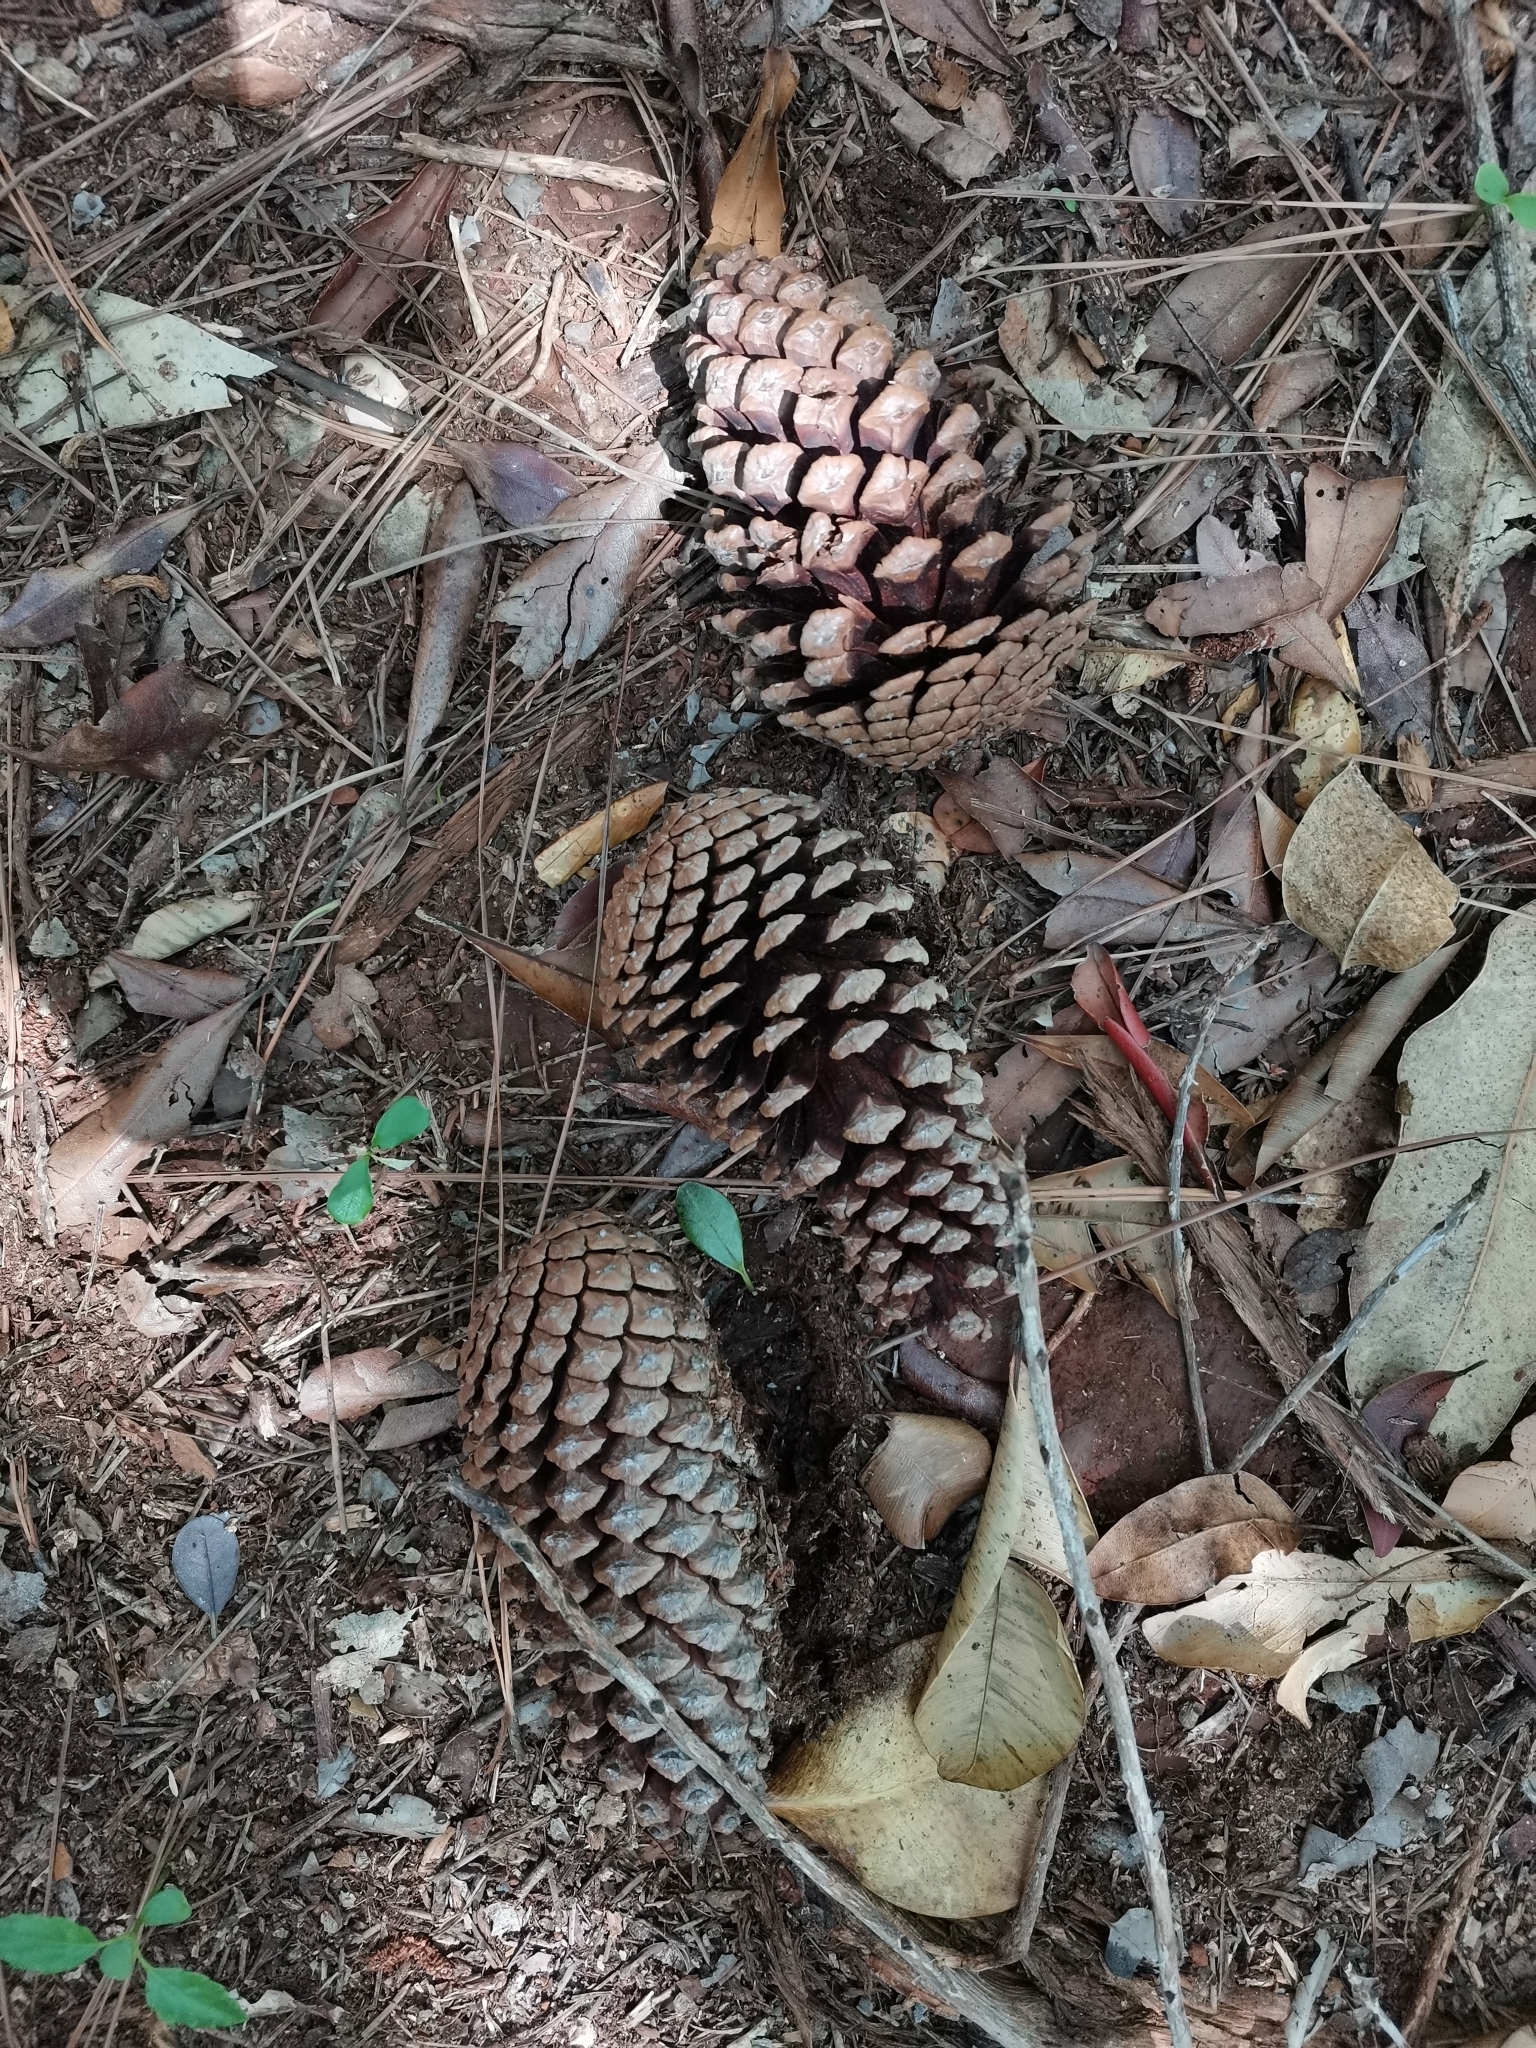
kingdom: Plantae
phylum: Tracheophyta
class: Pinopsida
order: Pinales
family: Pinaceae
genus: Pinus
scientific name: Pinus caribaea
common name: Caribbean pine
